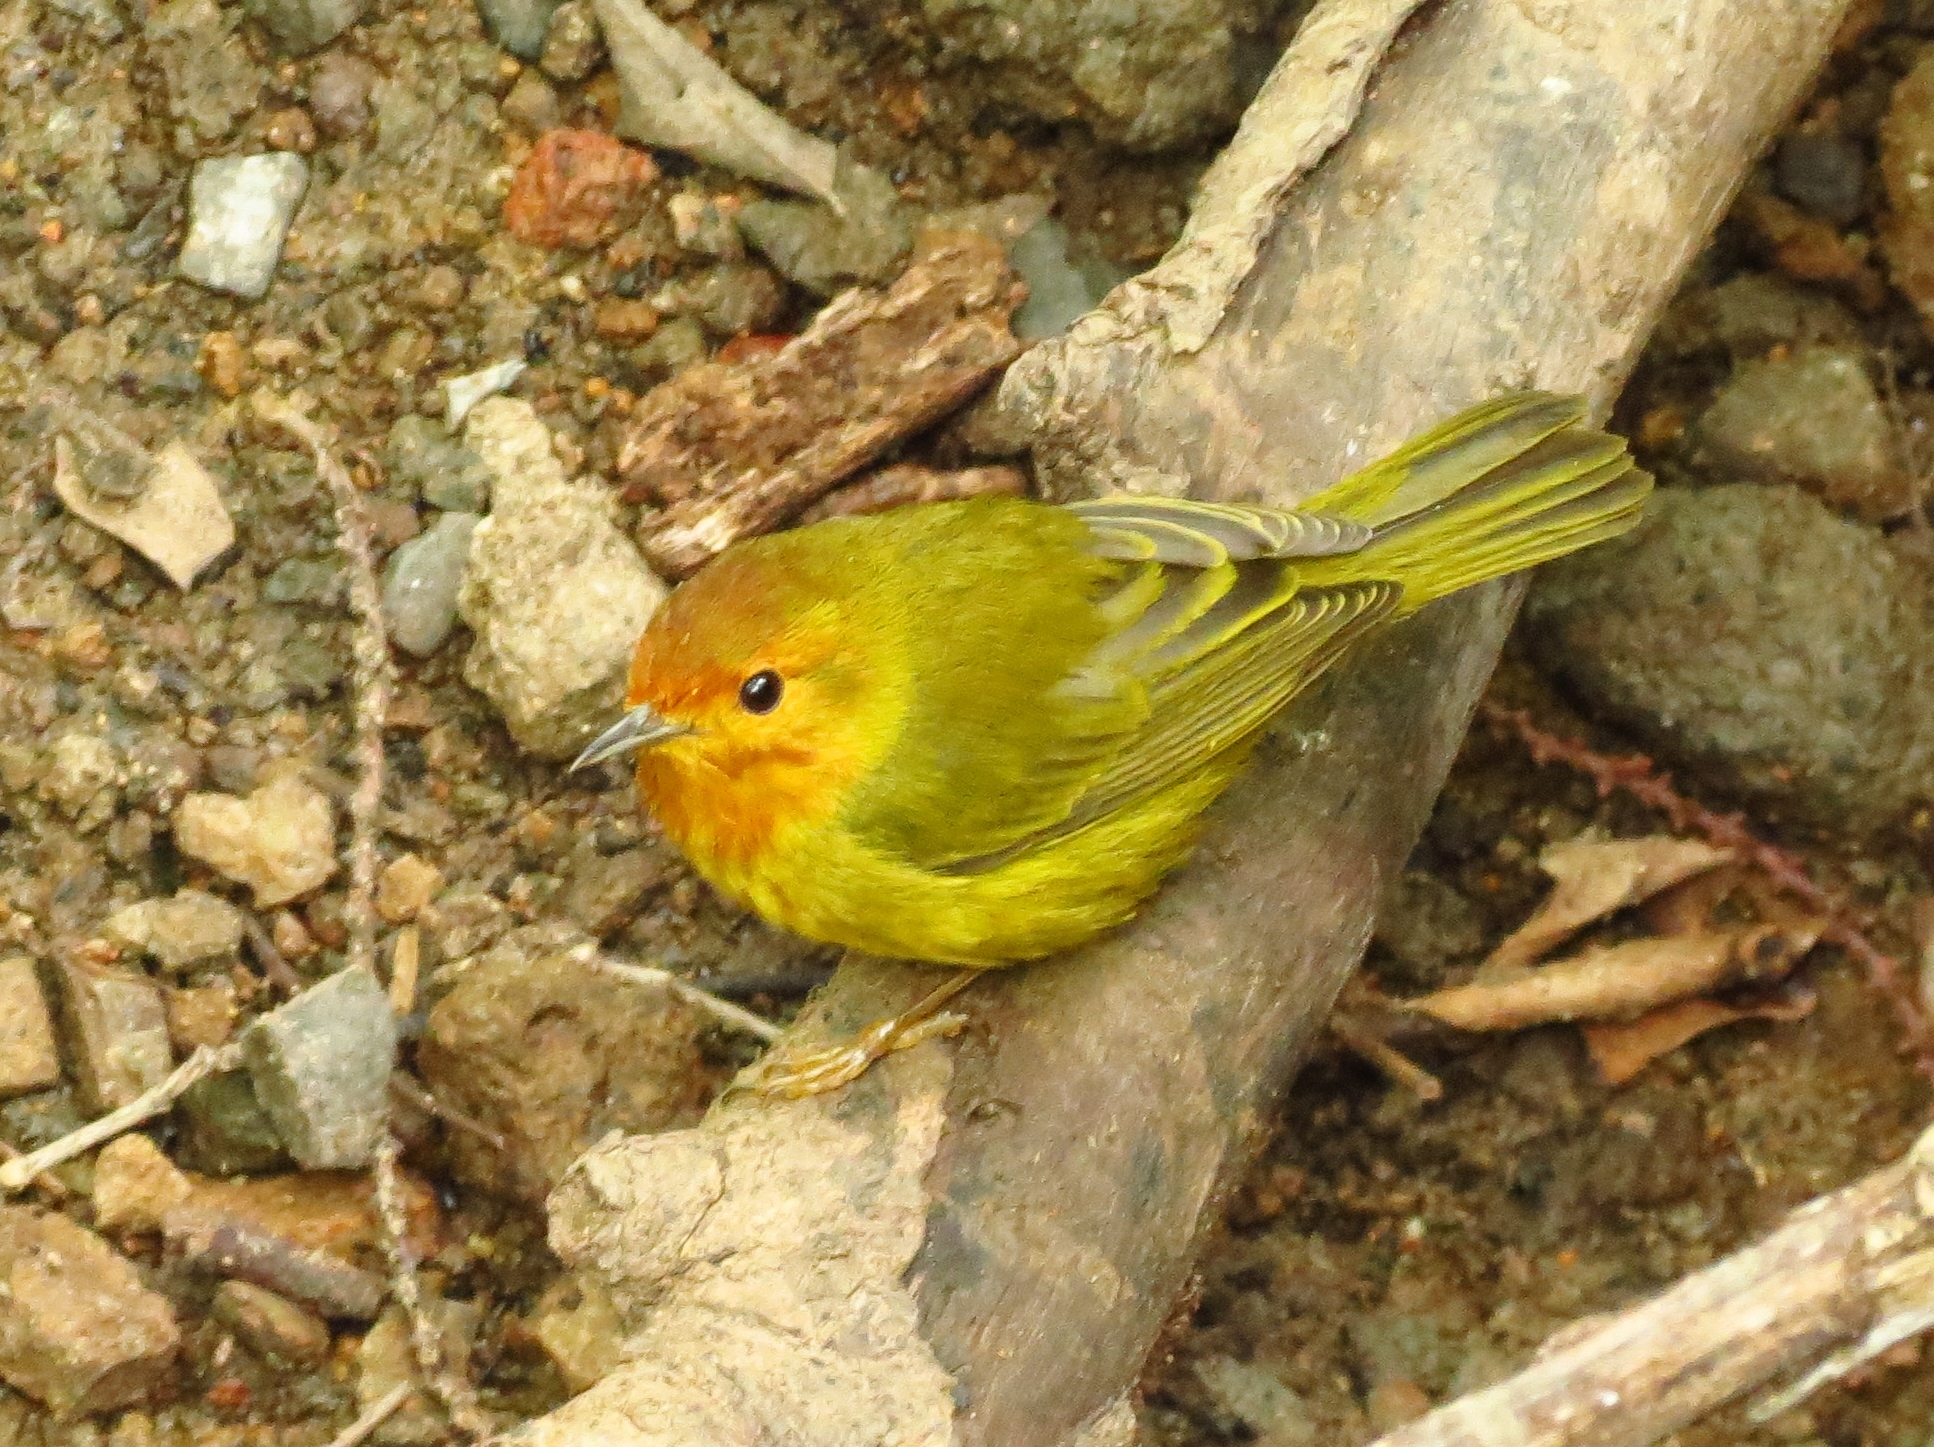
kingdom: Animalia
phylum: Chordata
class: Aves
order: Passeriformes
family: Parulidae
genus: Setophaga
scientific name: Setophaga petechia
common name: Yellow warbler
